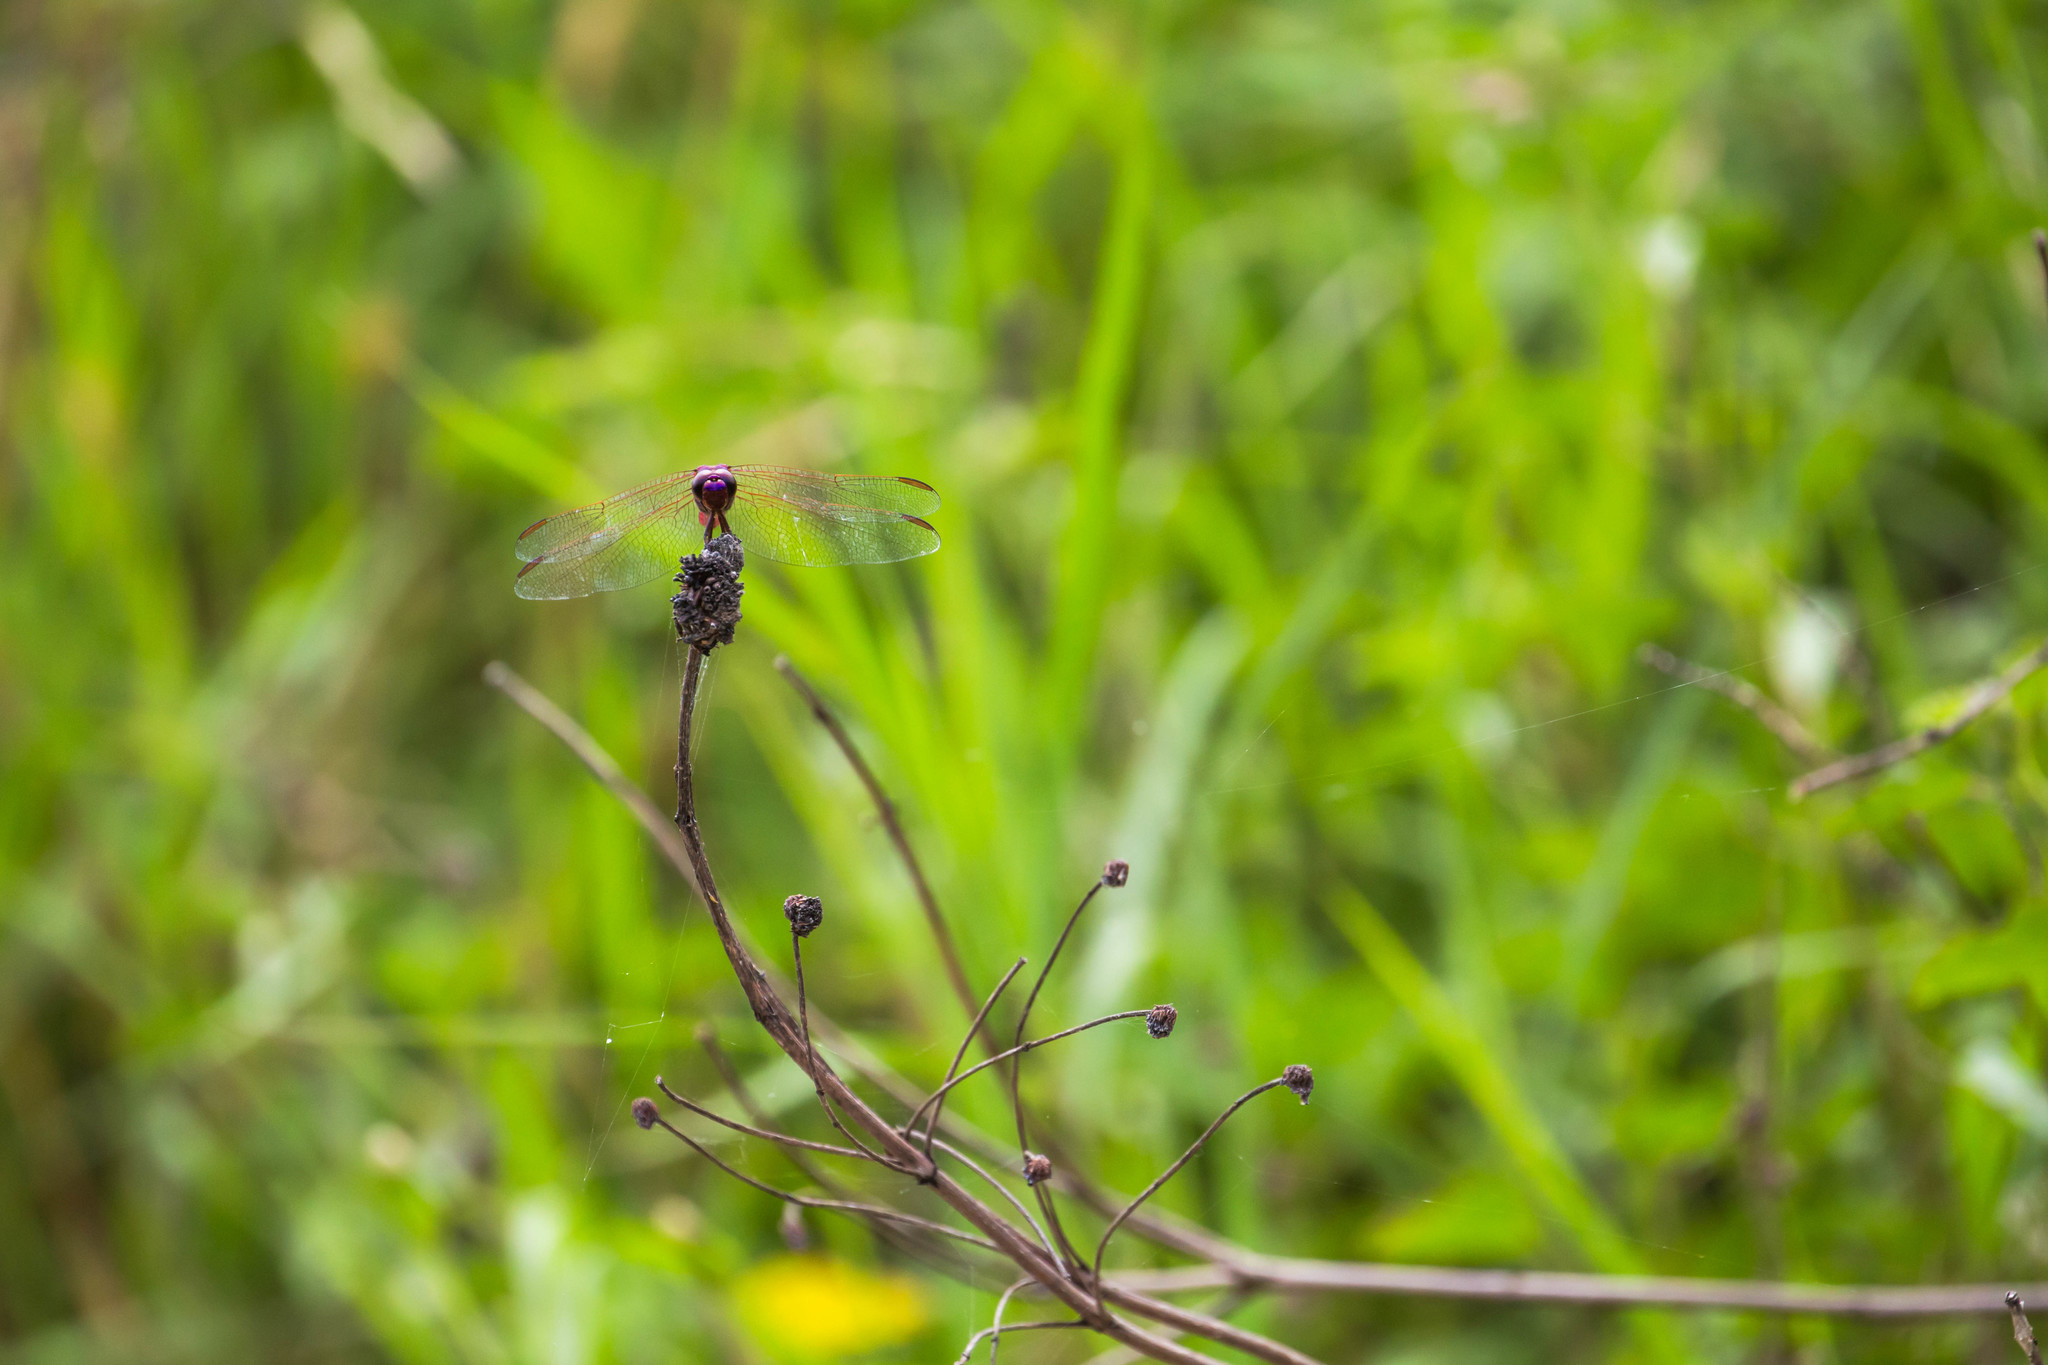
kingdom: Animalia
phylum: Arthropoda
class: Insecta
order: Odonata
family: Libellulidae
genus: Orthemis
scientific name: Orthemis ferruginea
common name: Roseate skimmer
